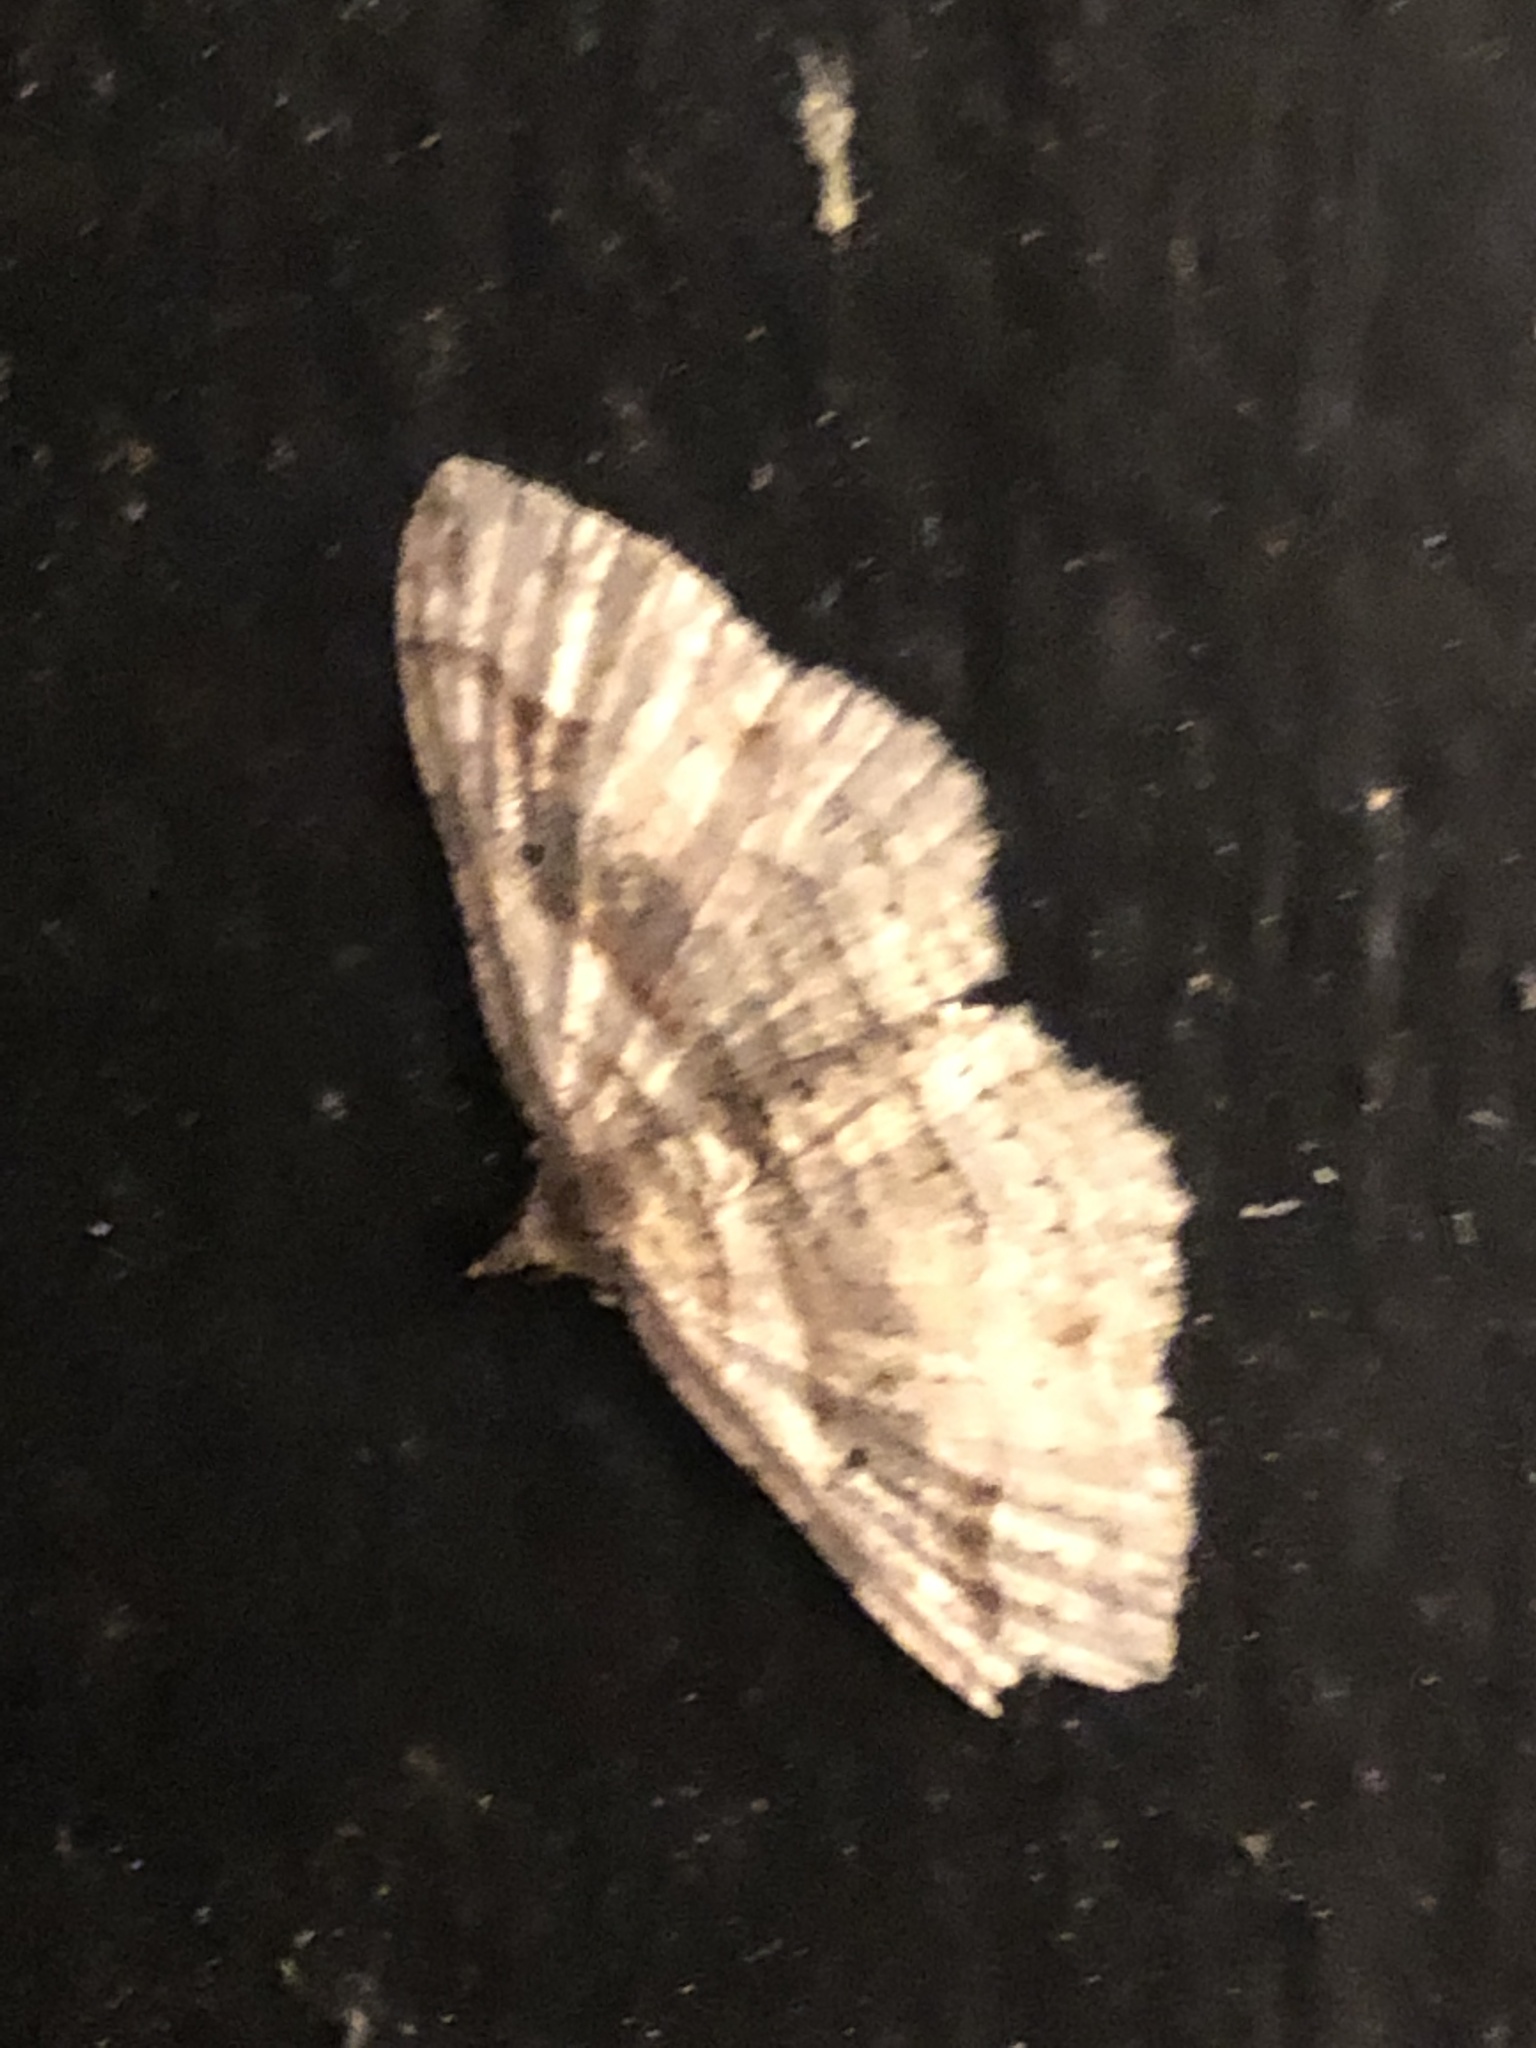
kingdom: Animalia
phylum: Arthropoda
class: Insecta
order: Lepidoptera
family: Geometridae
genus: Costaconvexa
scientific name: Costaconvexa centrostrigaria
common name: Bent-line carpet
